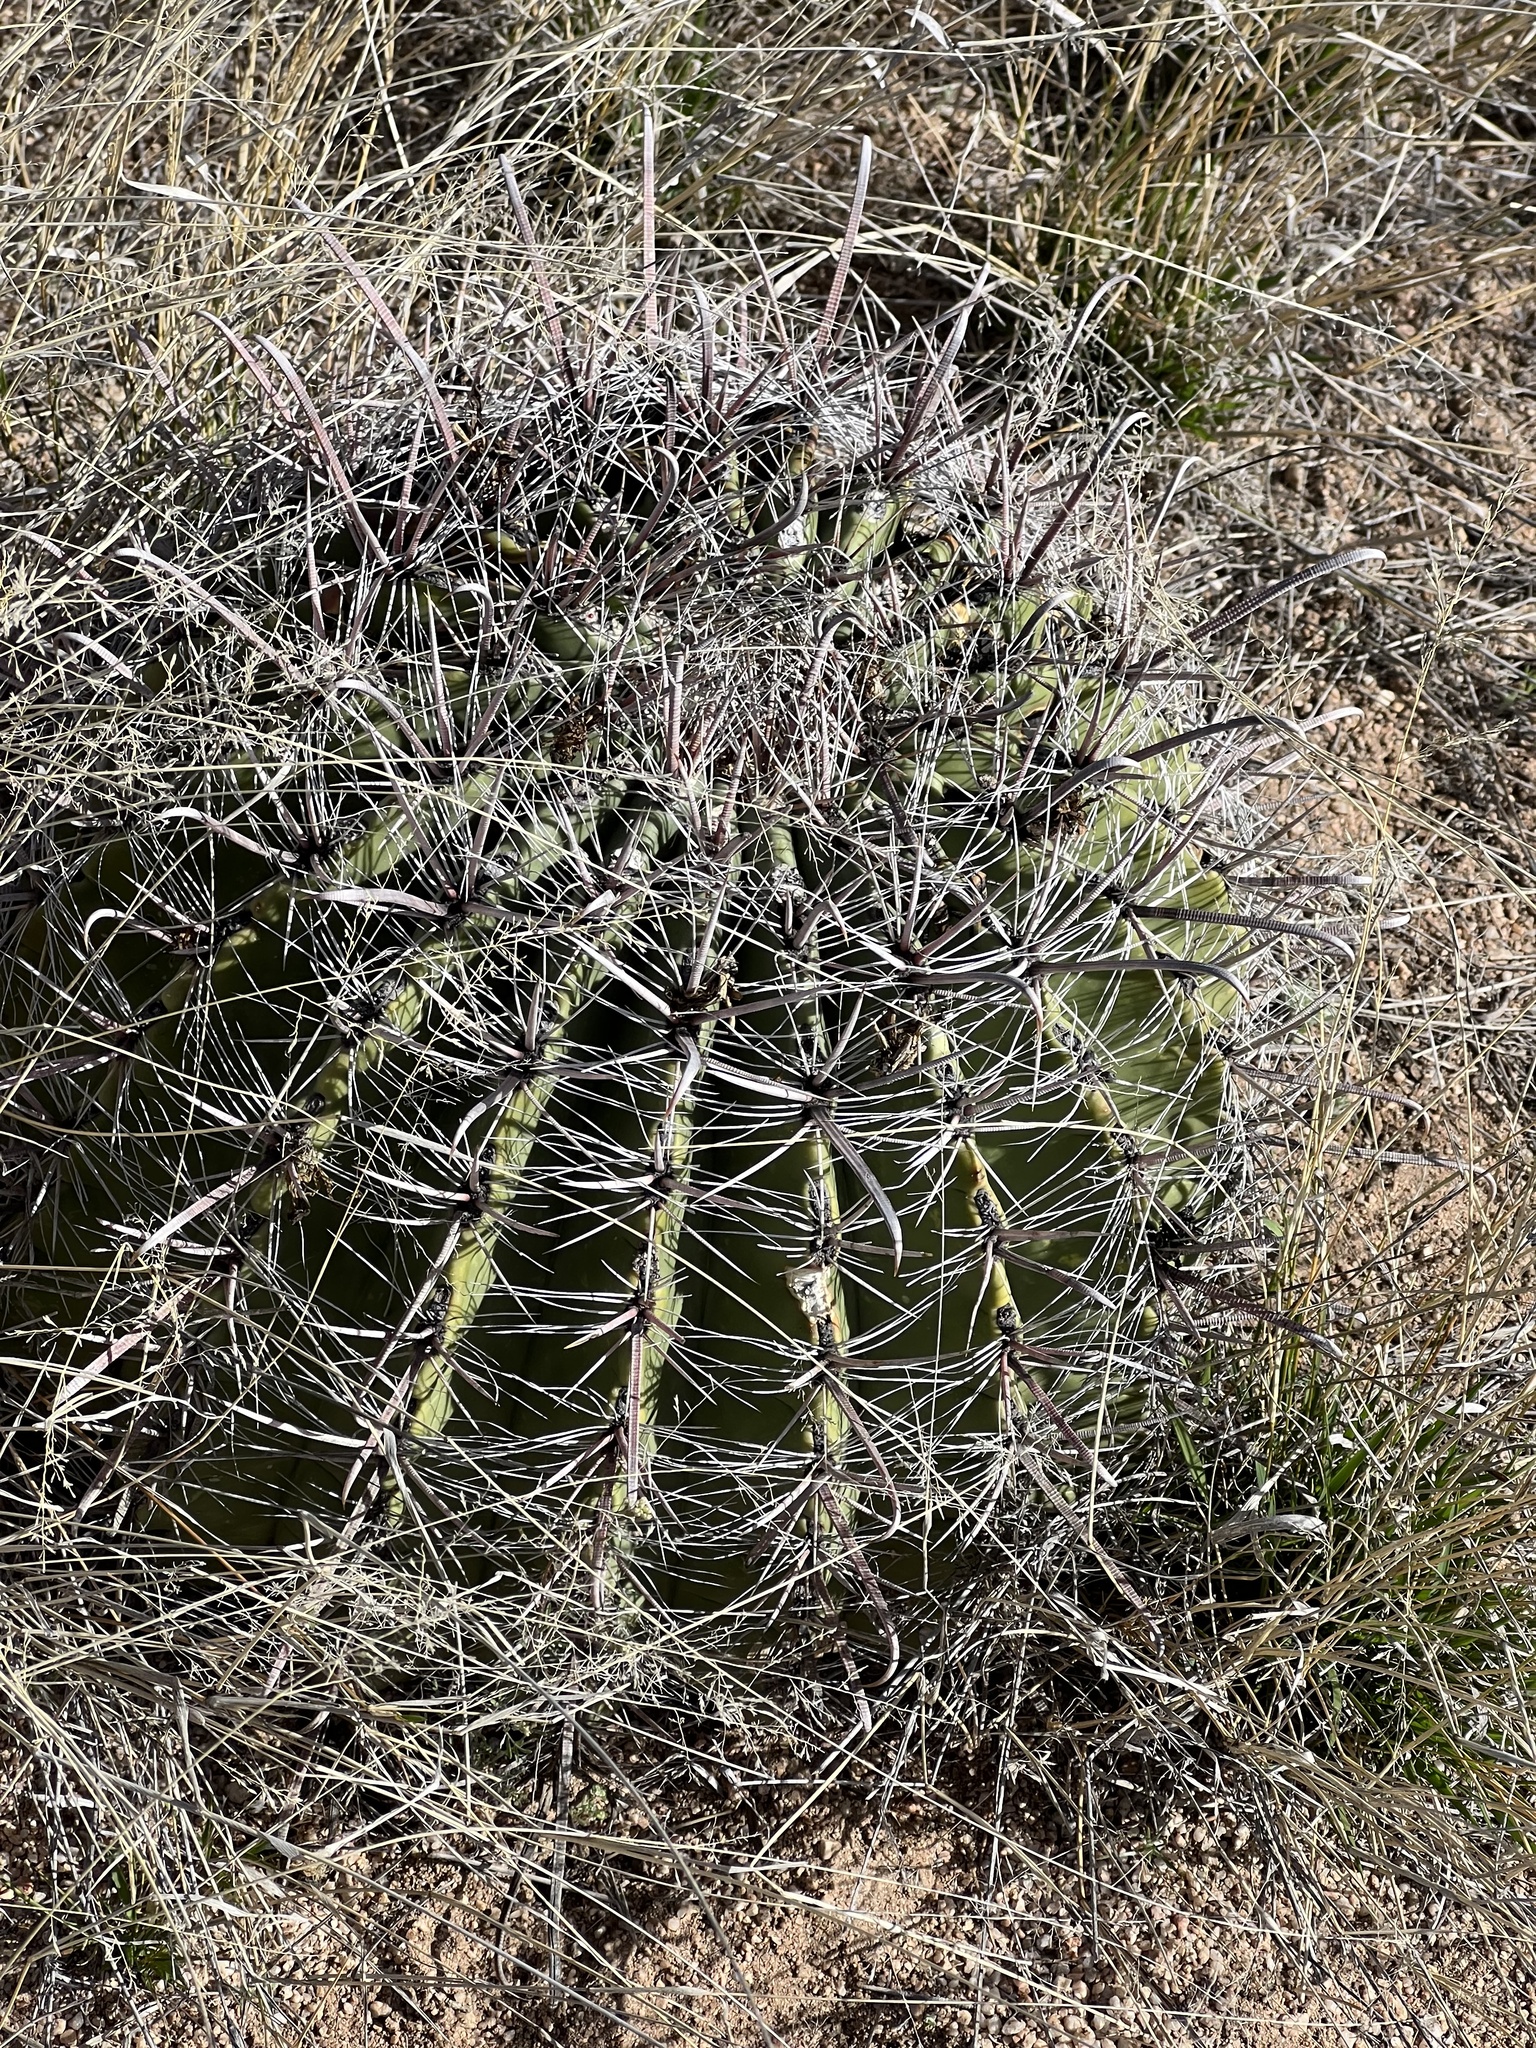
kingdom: Plantae
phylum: Tracheophyta
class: Magnoliopsida
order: Caryophyllales
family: Cactaceae
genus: Ferocactus
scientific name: Ferocactus wislizeni
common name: Candy barrel cactus
